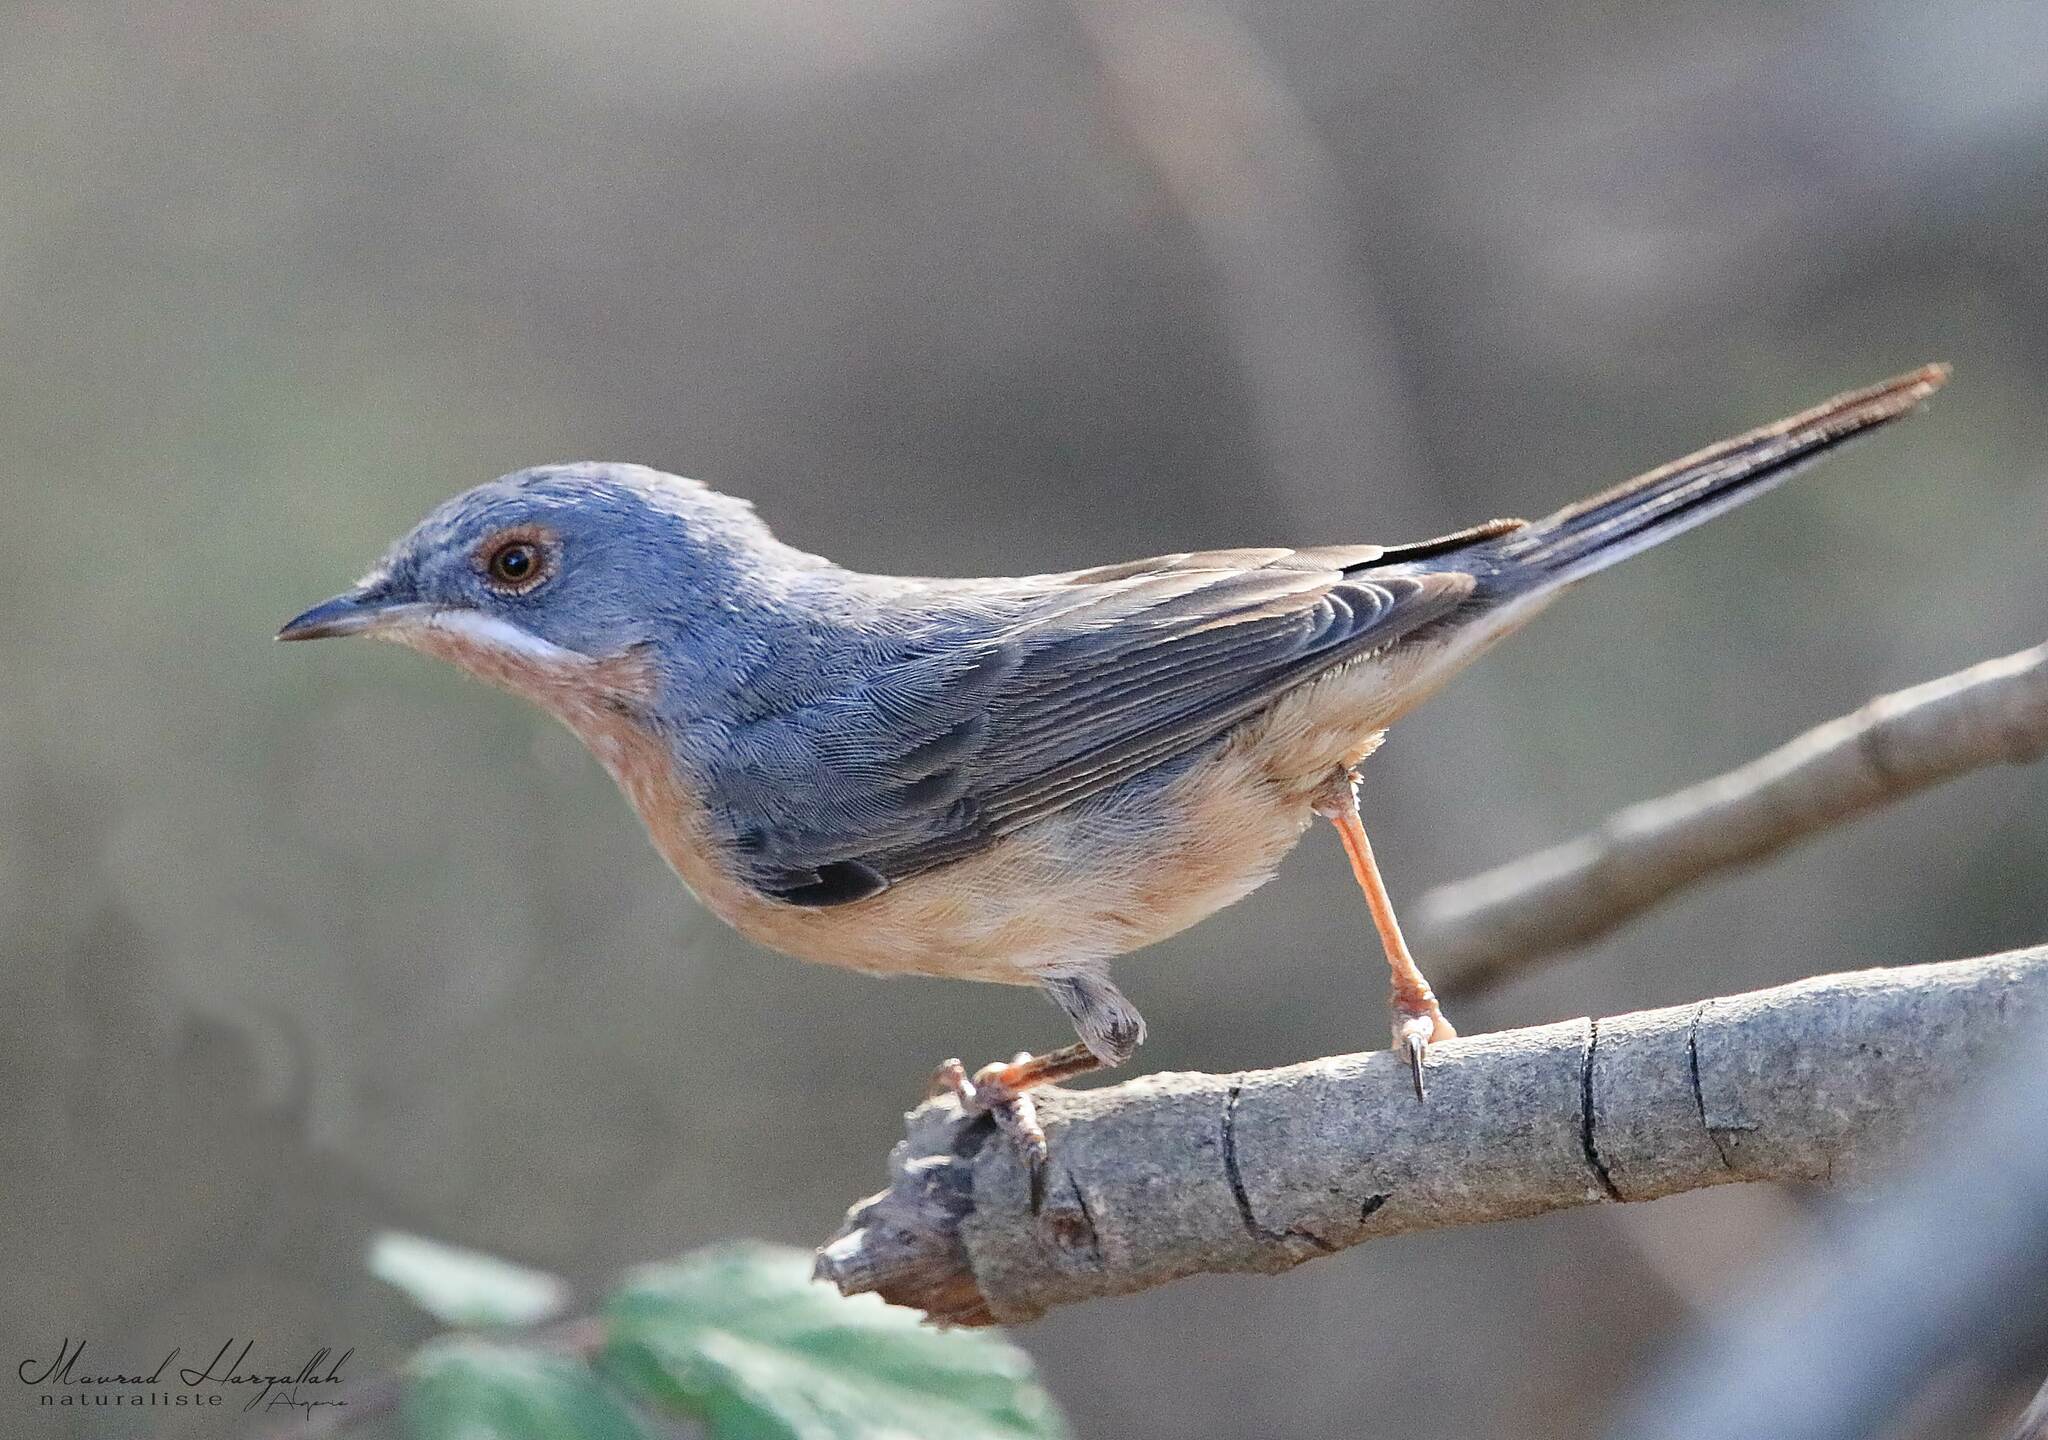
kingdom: Animalia
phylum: Chordata
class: Aves
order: Passeriformes
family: Sylviidae
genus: Curruca
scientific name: Curruca iberiae
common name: Western subalpine warbler
